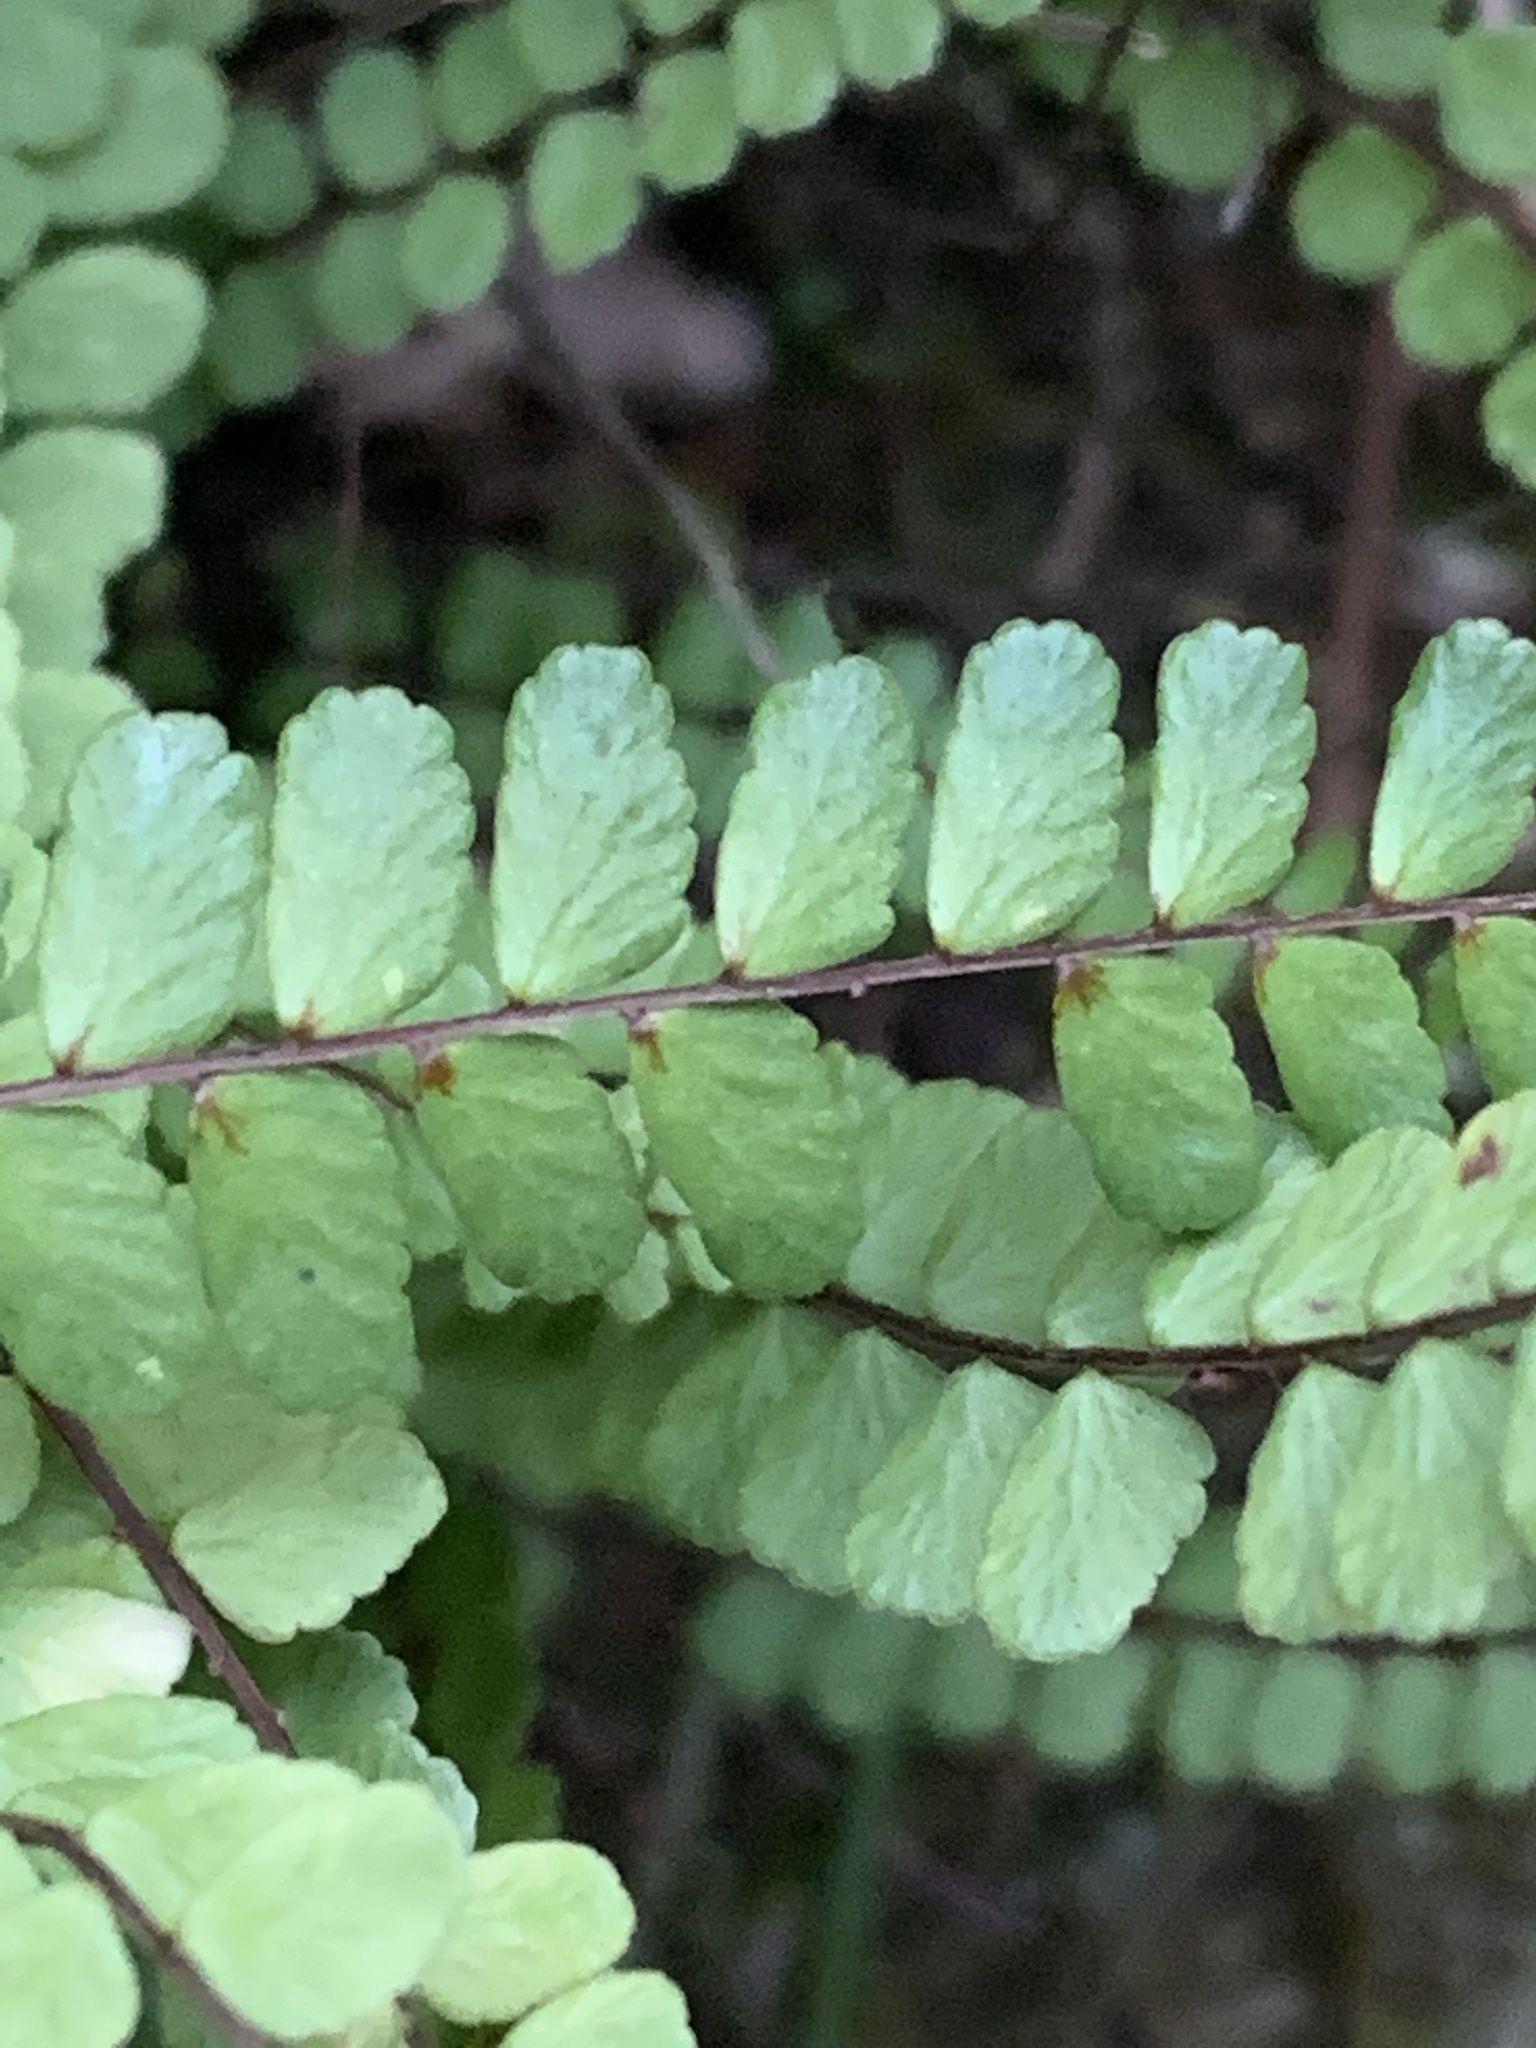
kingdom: Plantae
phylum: Tracheophyta
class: Polypodiopsida
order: Polypodiales
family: Aspleniaceae
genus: Asplenium
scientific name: Asplenium trichomanes
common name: Maidenhair spleenwort
